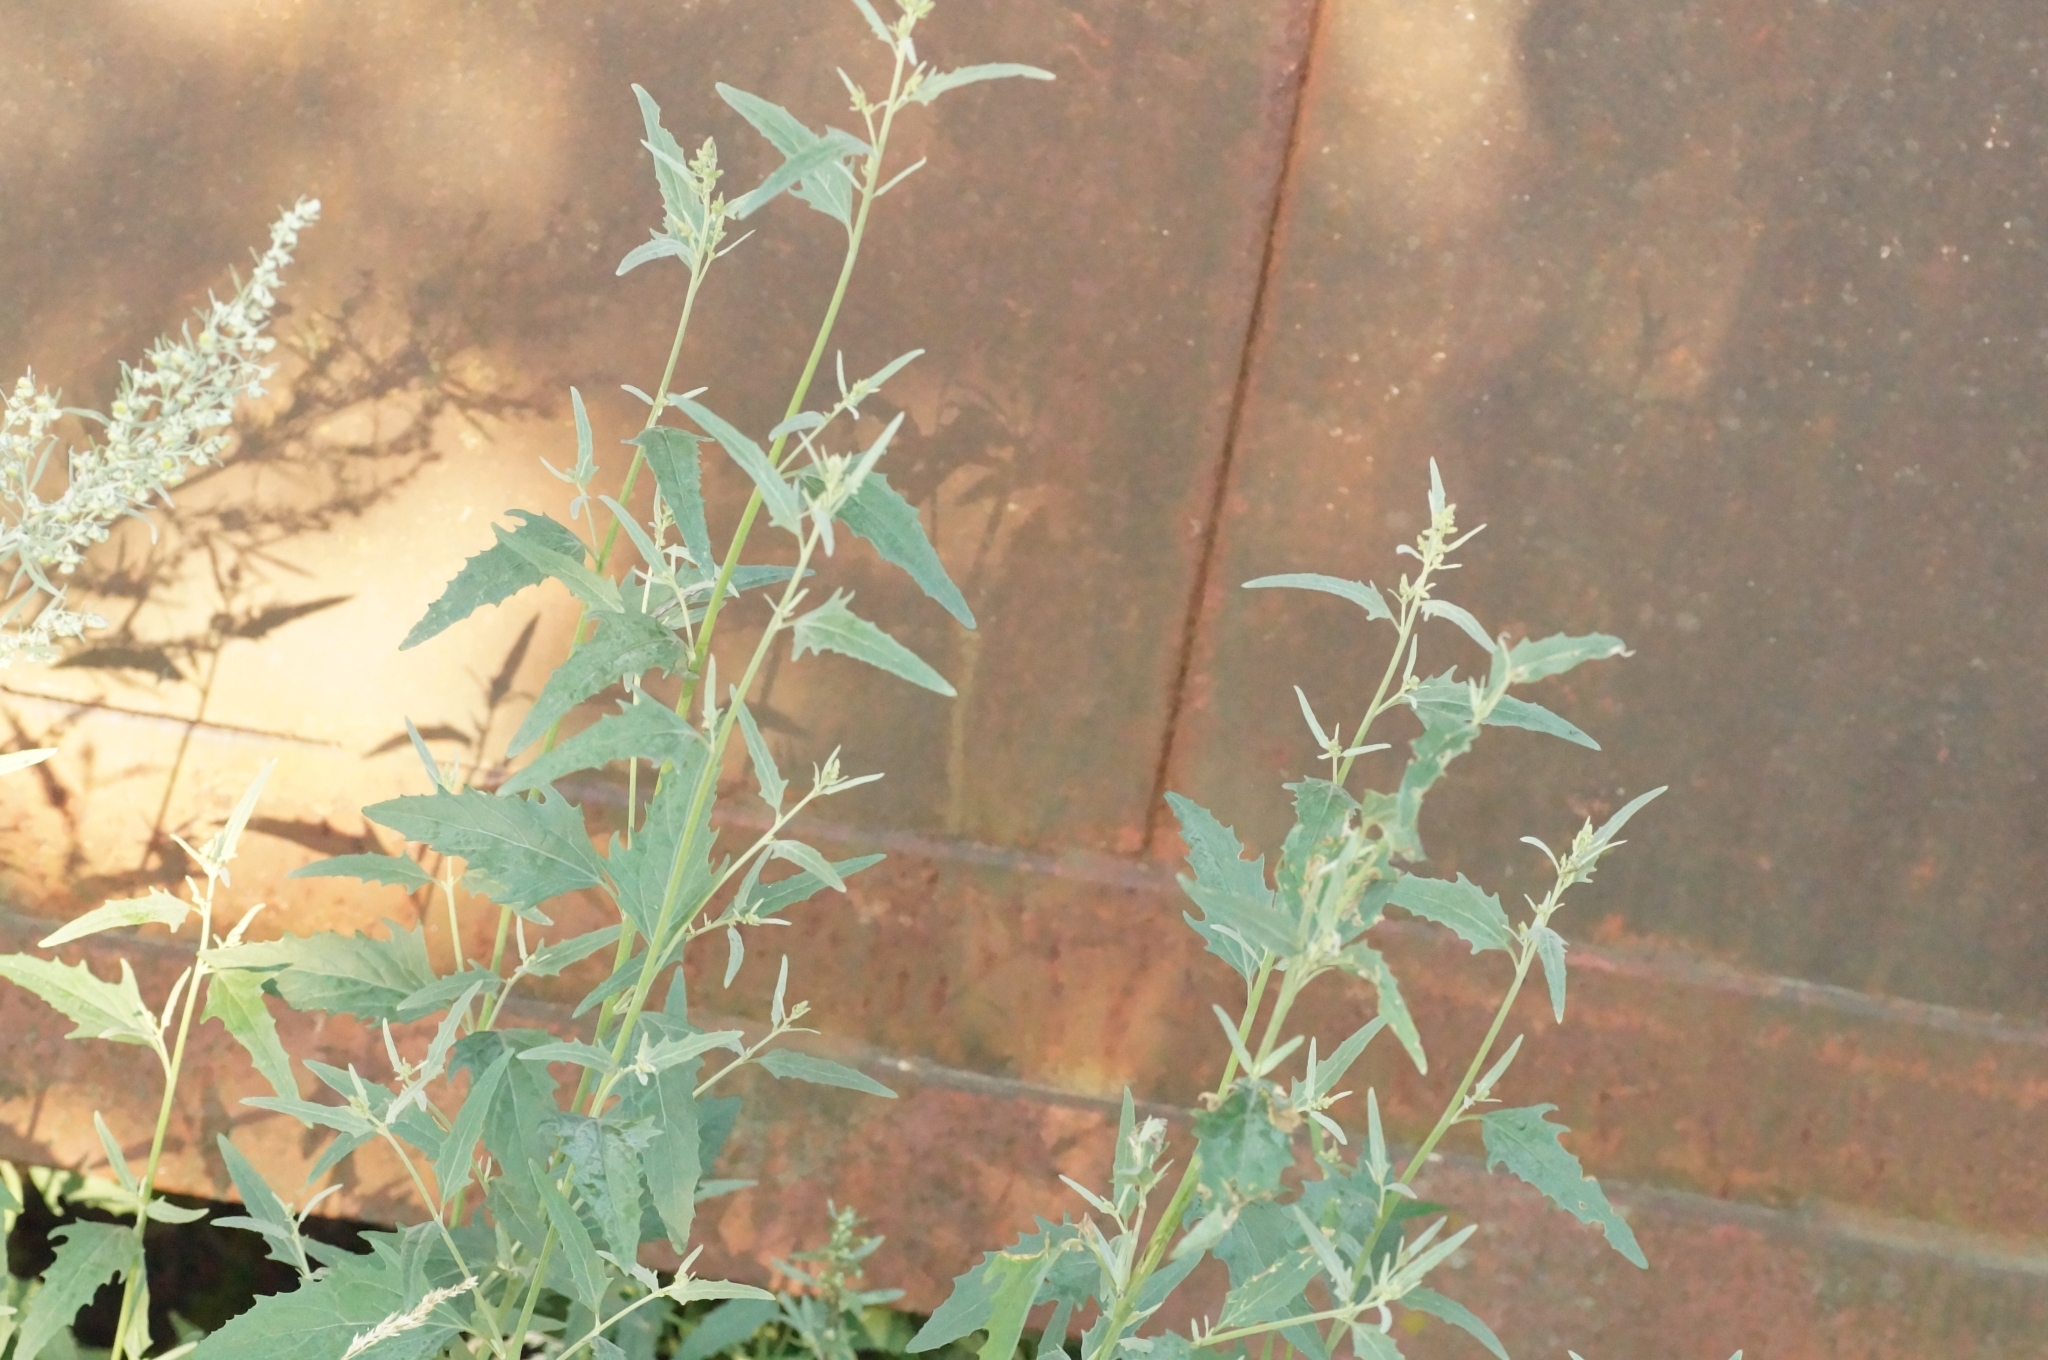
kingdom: Plantae
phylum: Tracheophyta
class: Magnoliopsida
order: Caryophyllales
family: Amaranthaceae
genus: Atriplex
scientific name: Atriplex oblongifolia
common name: Oblongleaf orache
